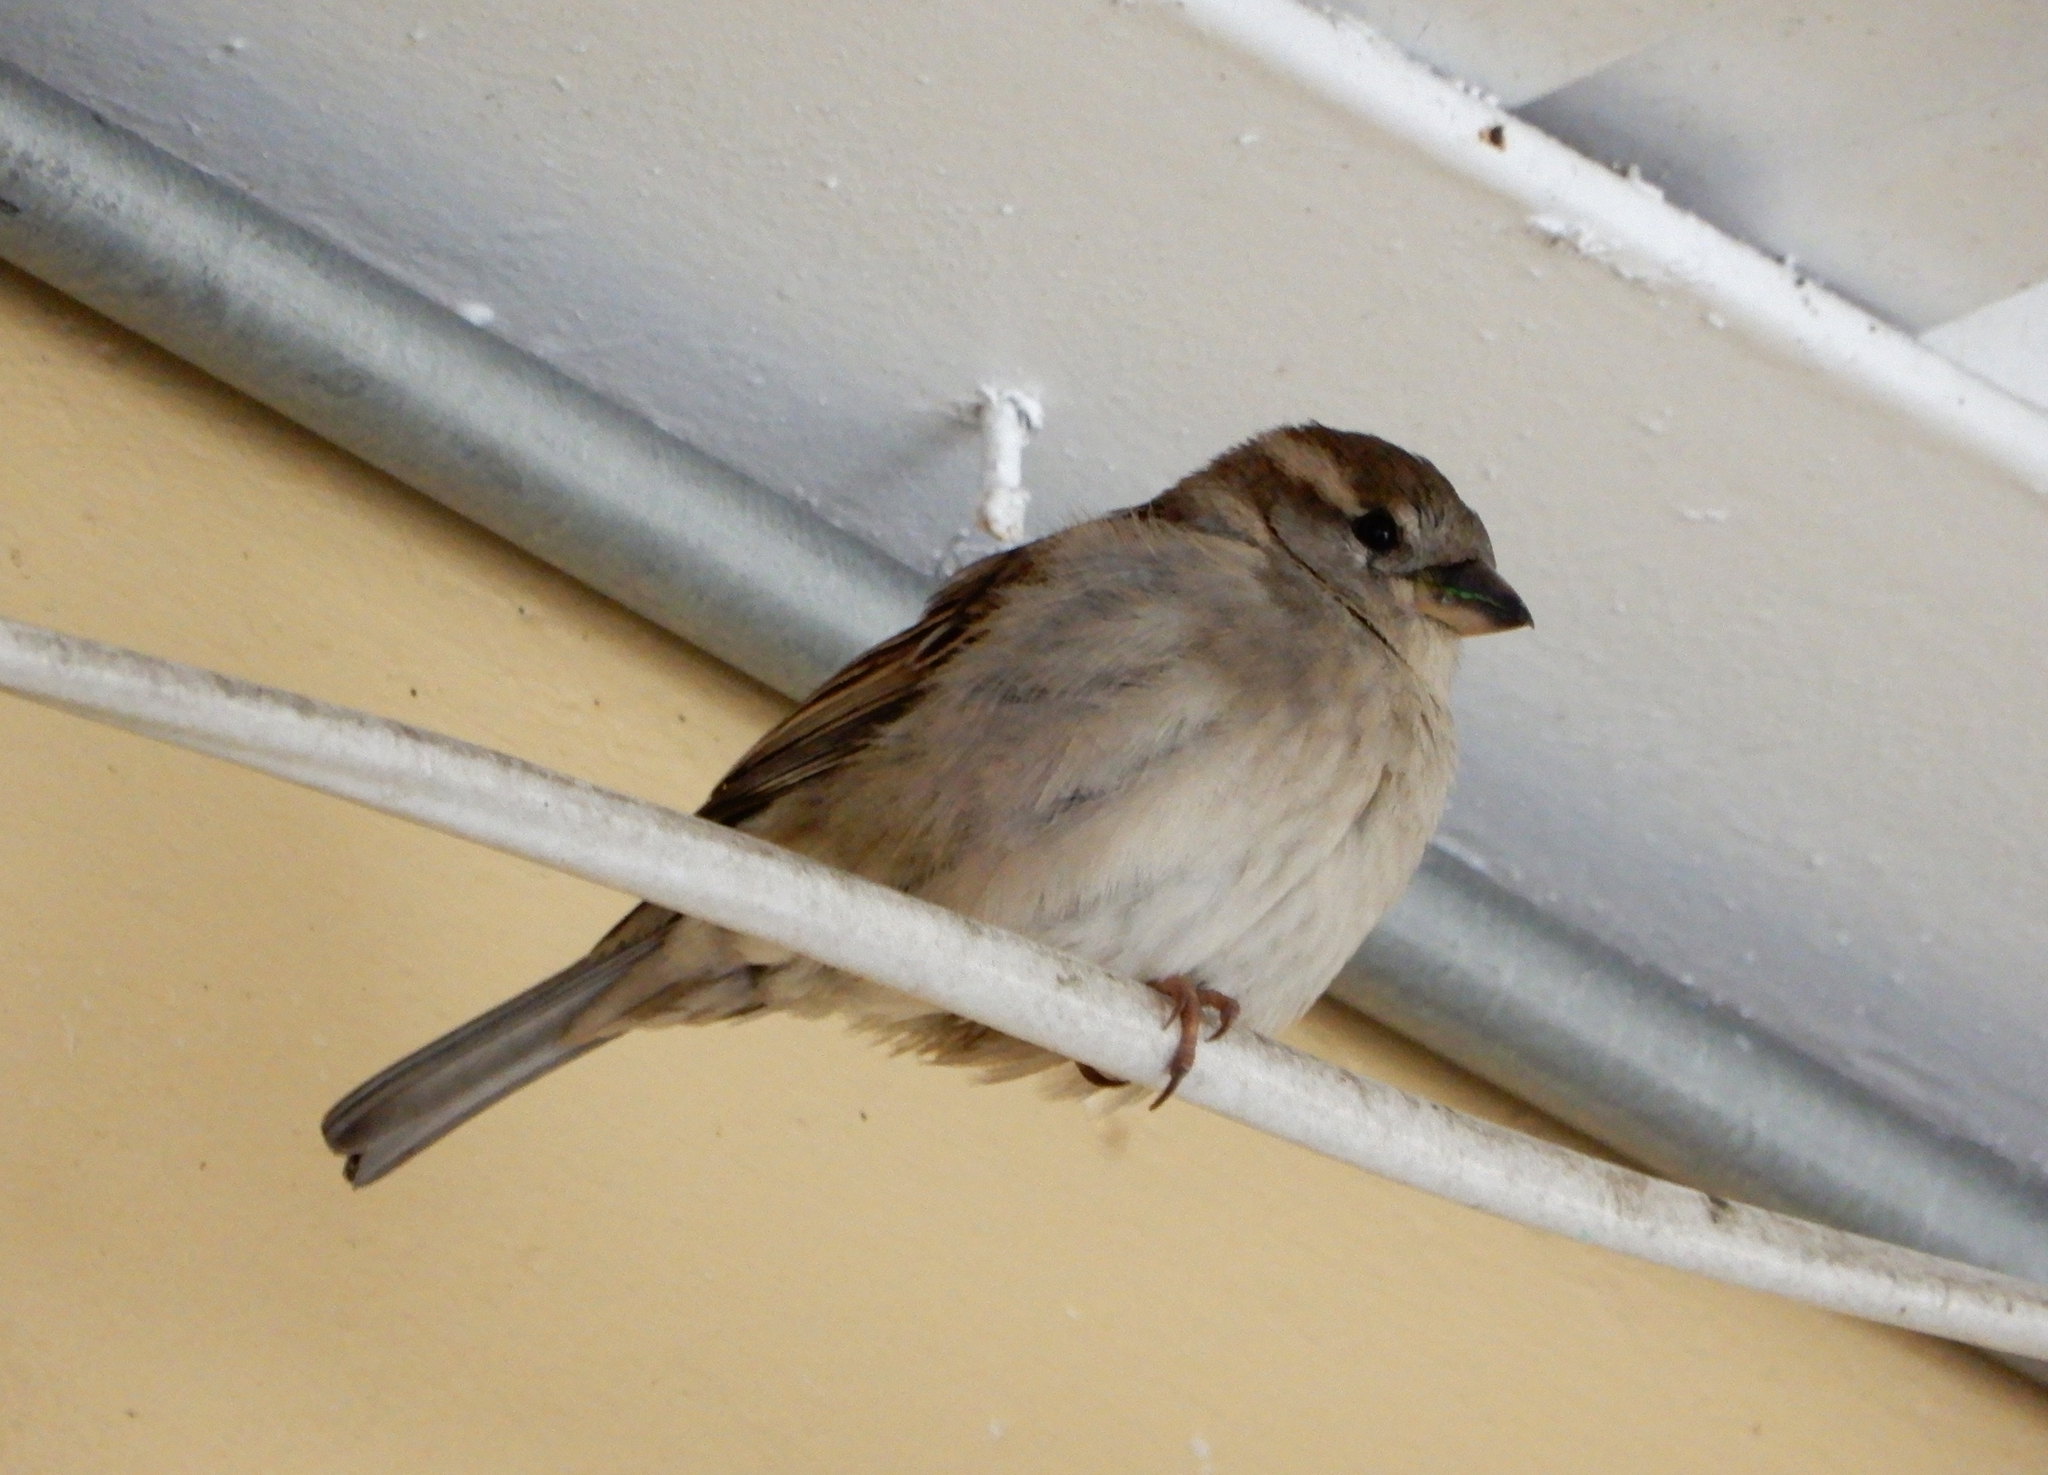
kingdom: Animalia
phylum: Chordata
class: Aves
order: Passeriformes
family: Passeridae
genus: Passer
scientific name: Passer domesticus
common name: House sparrow
